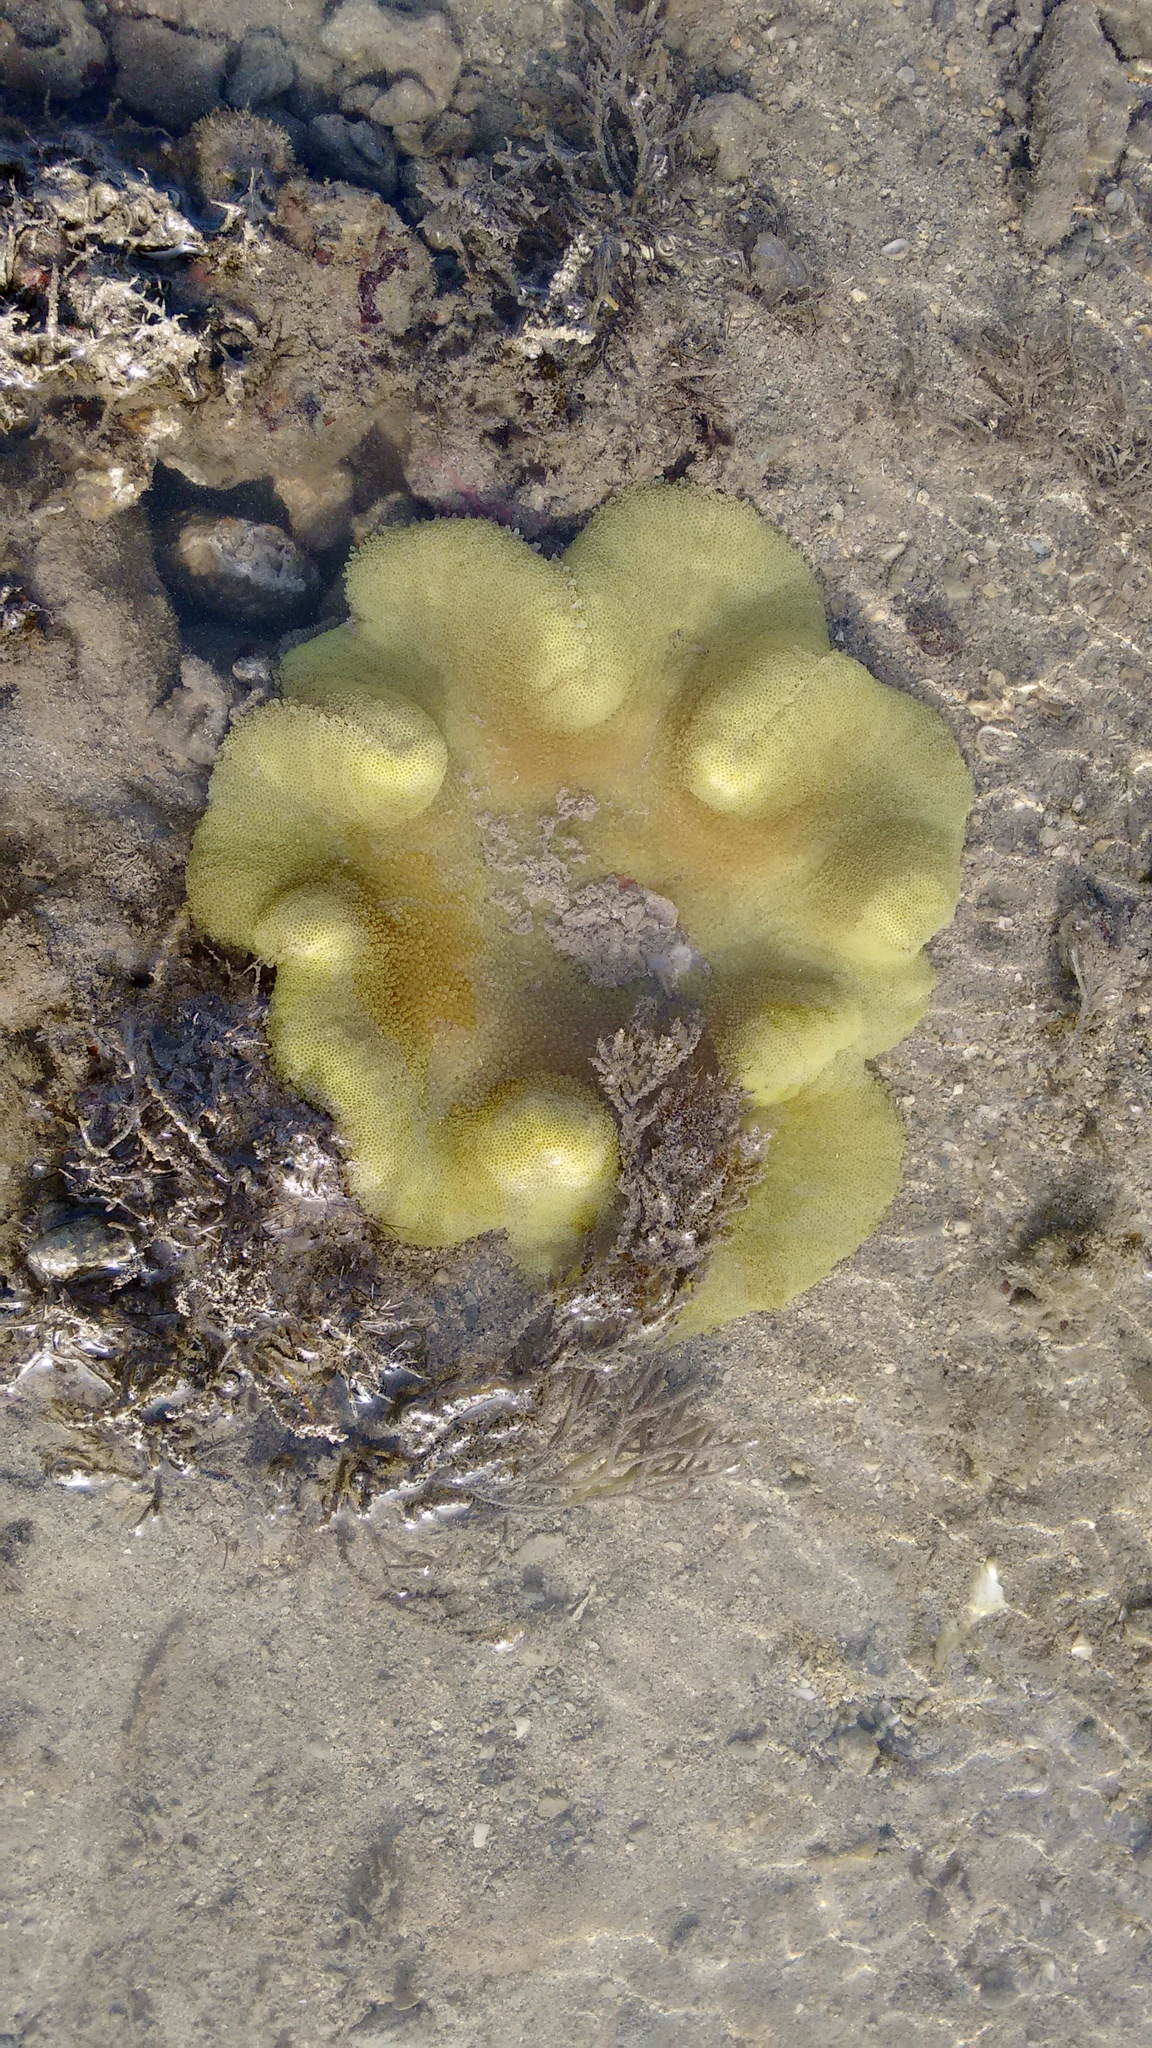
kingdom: Animalia
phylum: Cnidaria
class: Anthozoa
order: Actiniaria
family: Stichodactylidae
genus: Stichodactyla
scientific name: Stichodactyla haddoni
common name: Haddon's sea anemone
